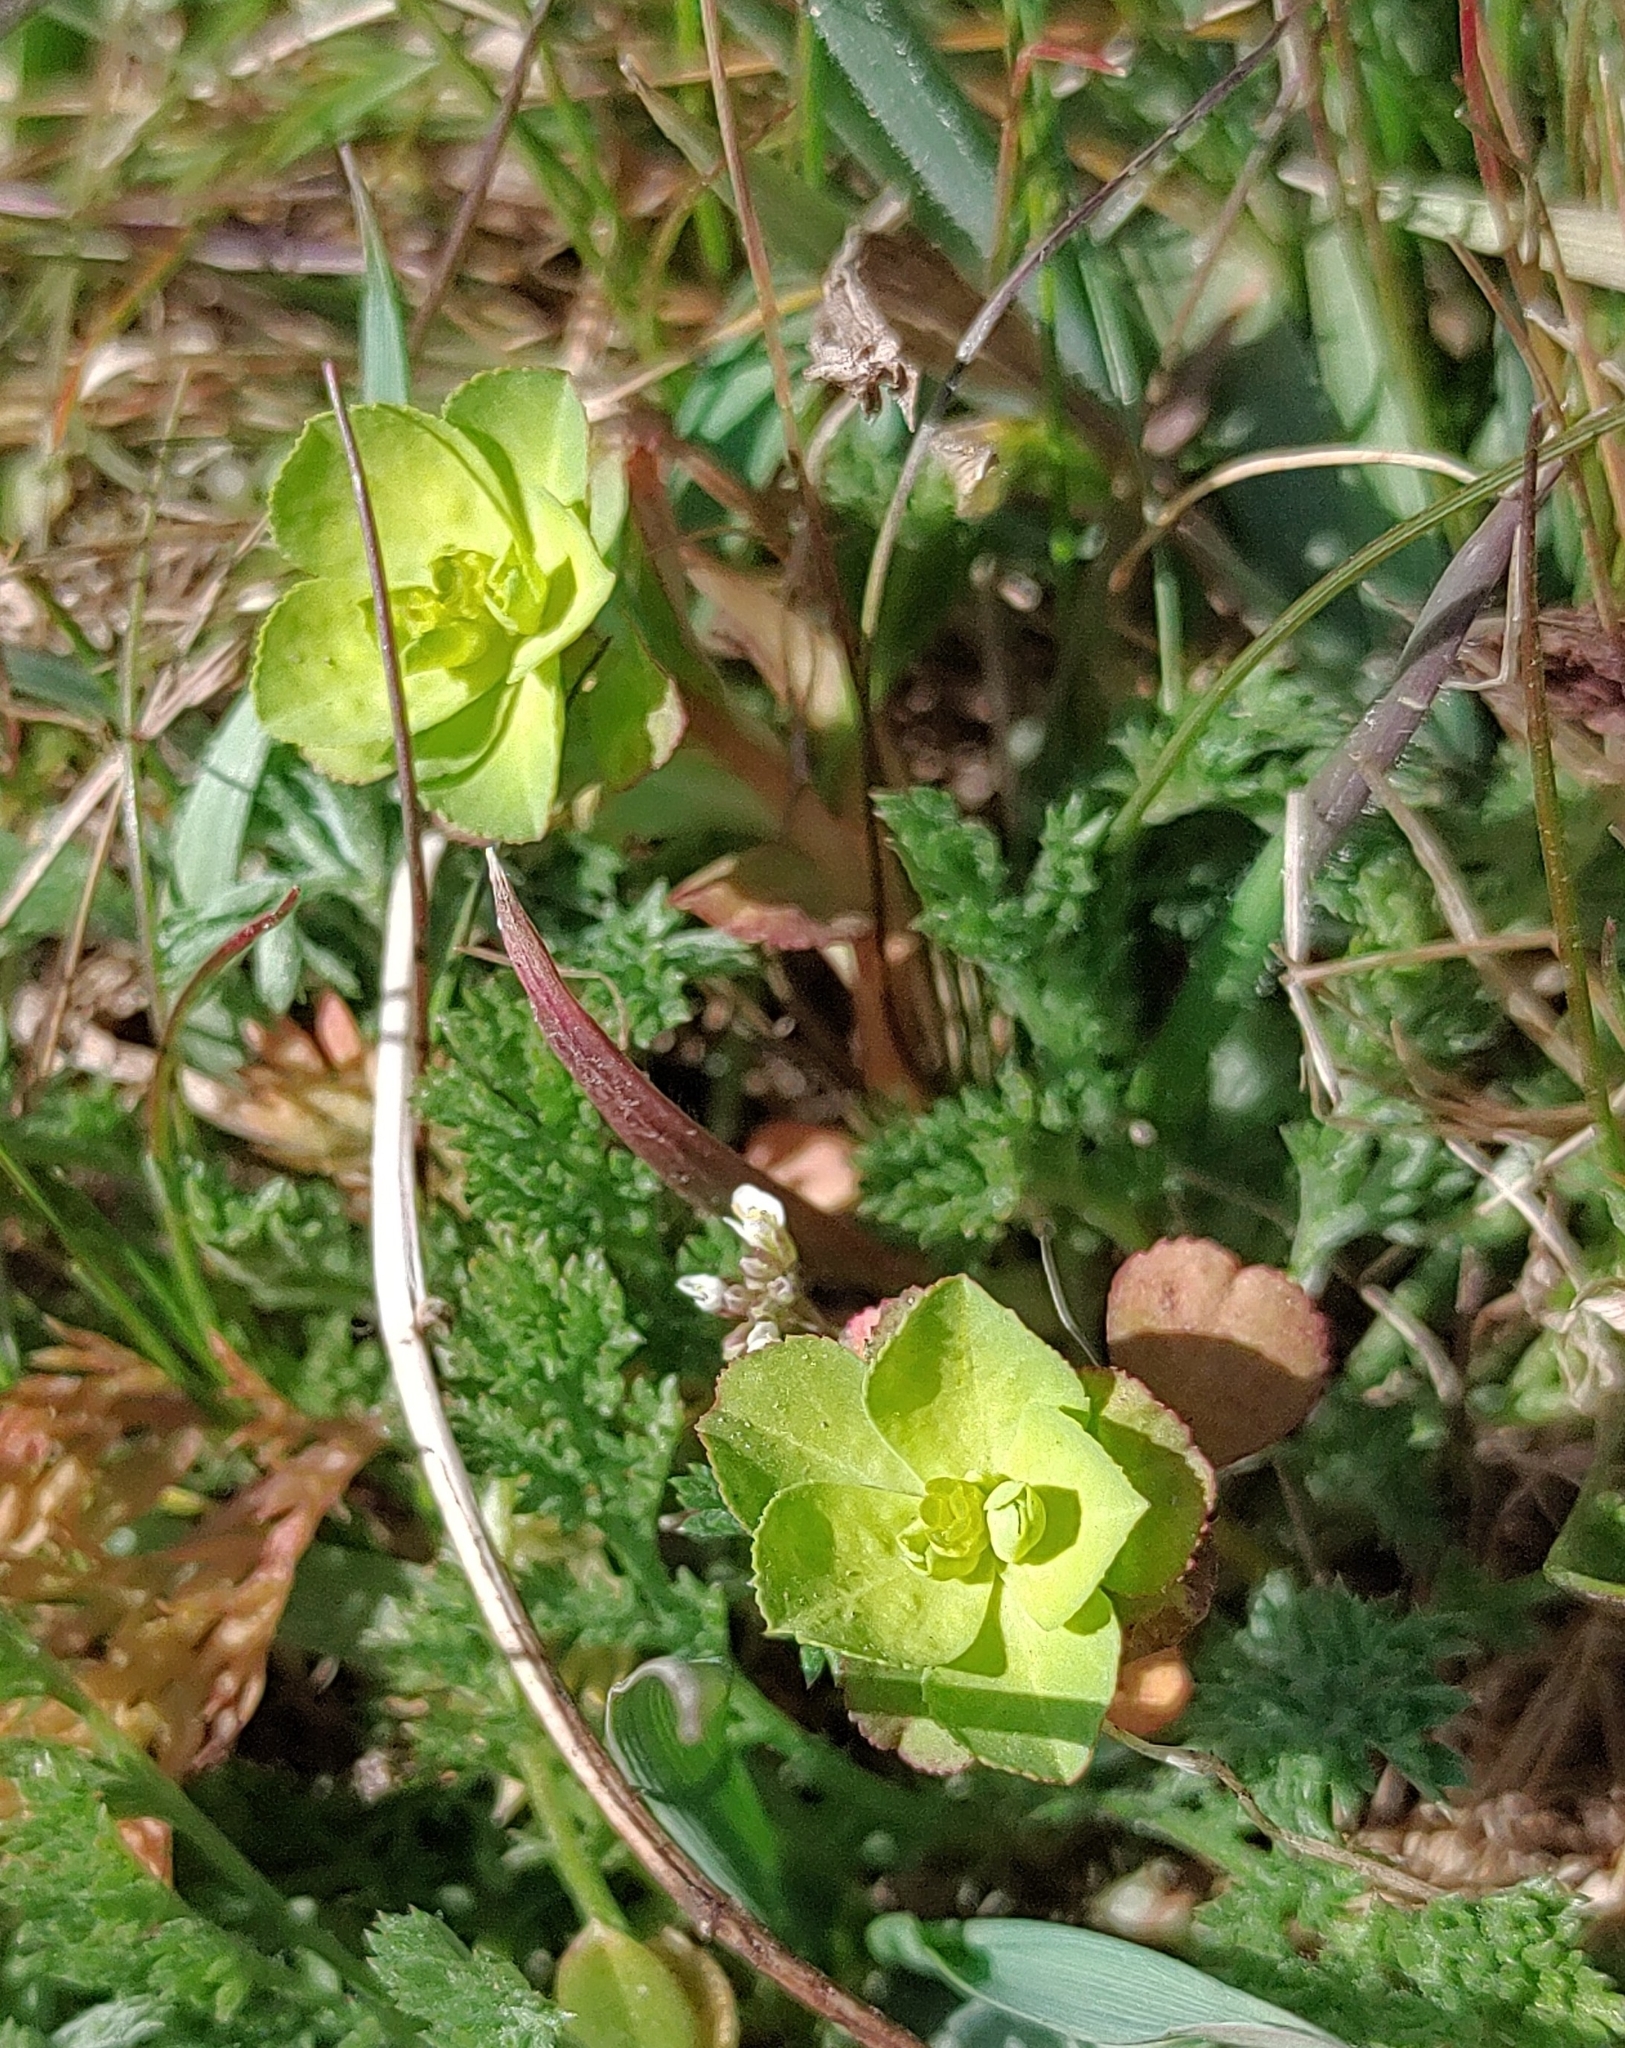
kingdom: Plantae
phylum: Tracheophyta
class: Magnoliopsida
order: Malpighiales
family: Euphorbiaceae
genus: Euphorbia
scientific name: Euphorbia helioscopia
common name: Sun spurge
